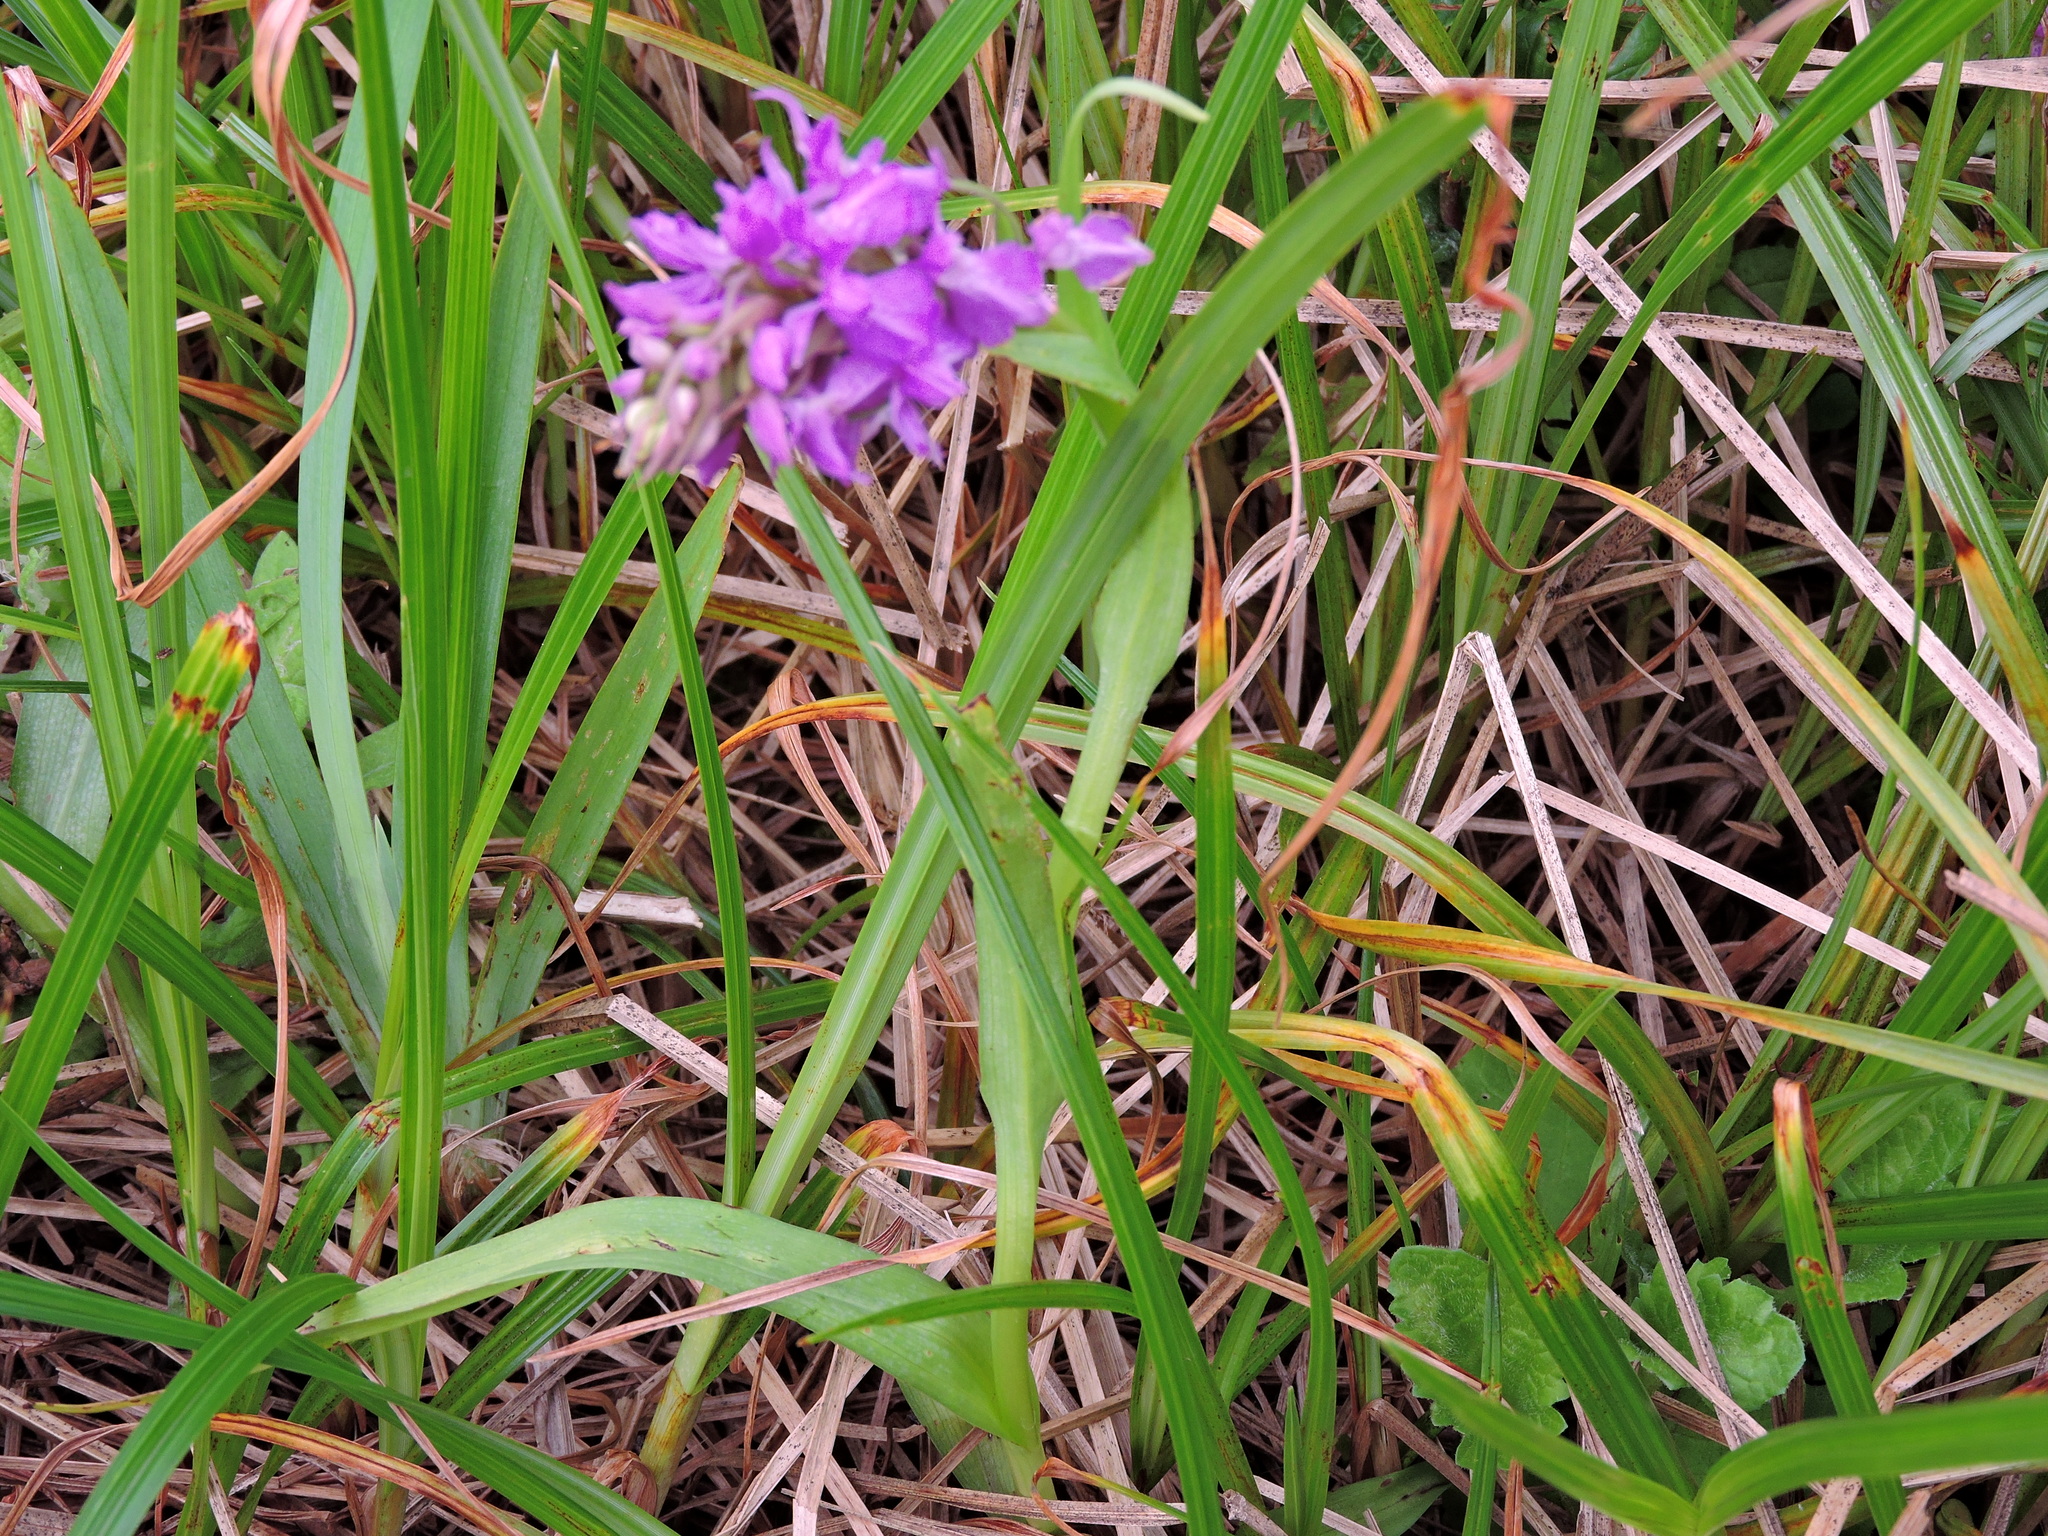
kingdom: Plantae
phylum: Tracheophyta
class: Liliopsida
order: Asparagales
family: Orchidaceae
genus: Dactylorhiza
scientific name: Dactylorhiza majalis
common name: Marsh orchid
